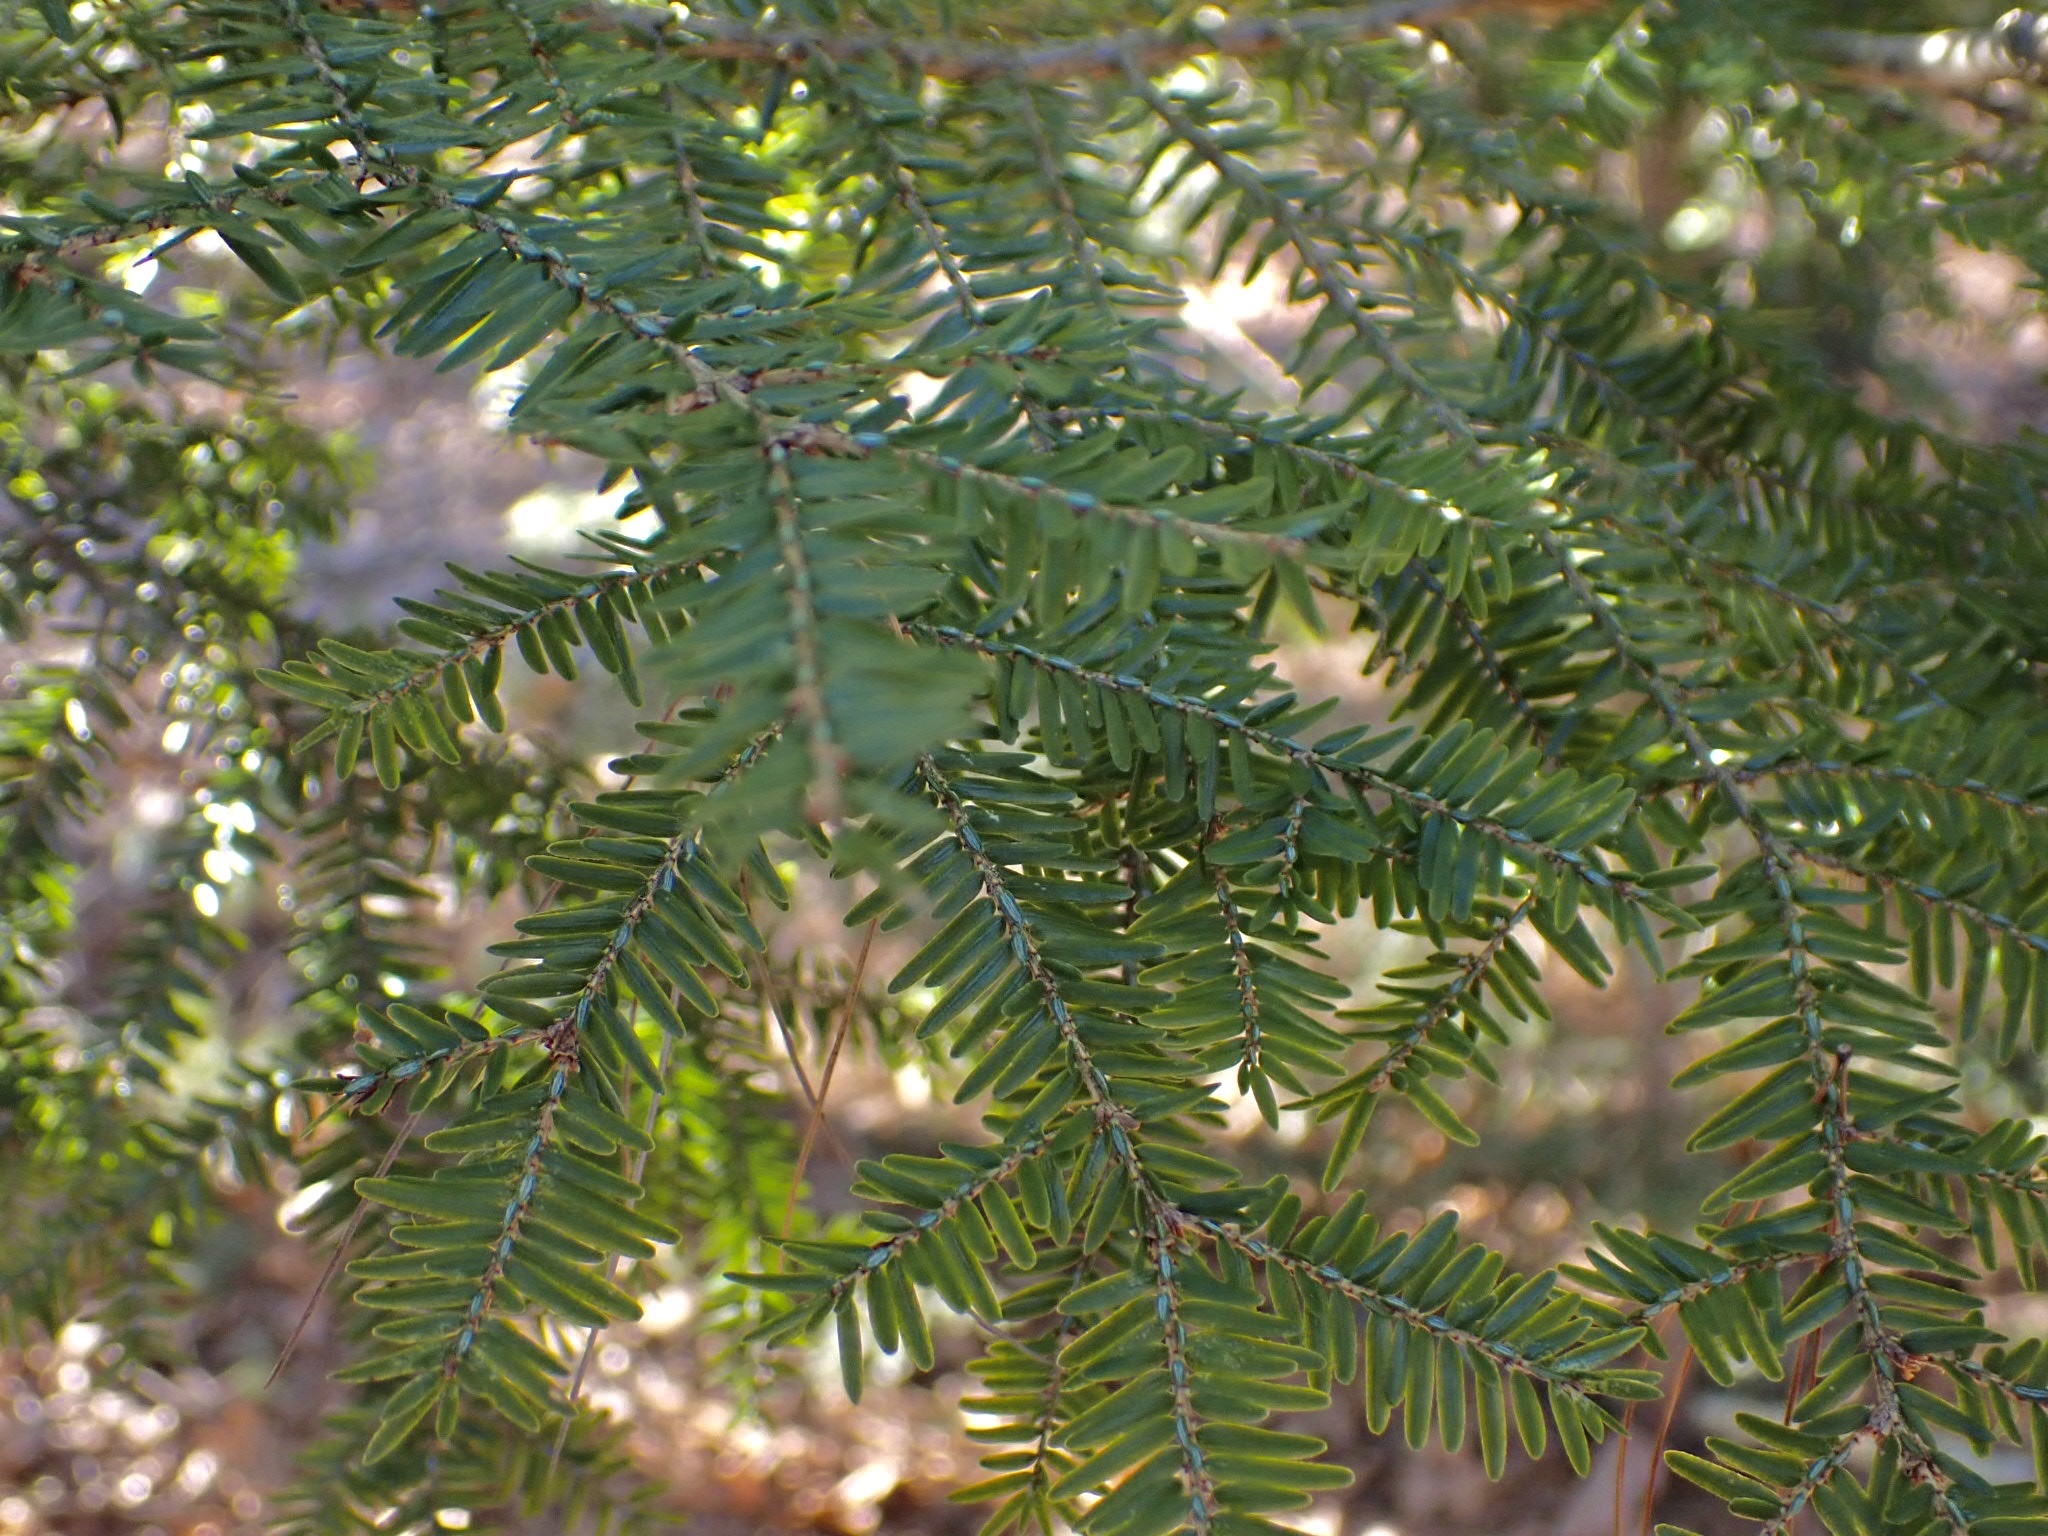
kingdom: Plantae
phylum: Tracheophyta
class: Pinopsida
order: Pinales
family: Pinaceae
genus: Tsuga
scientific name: Tsuga canadensis
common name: Eastern hemlock
